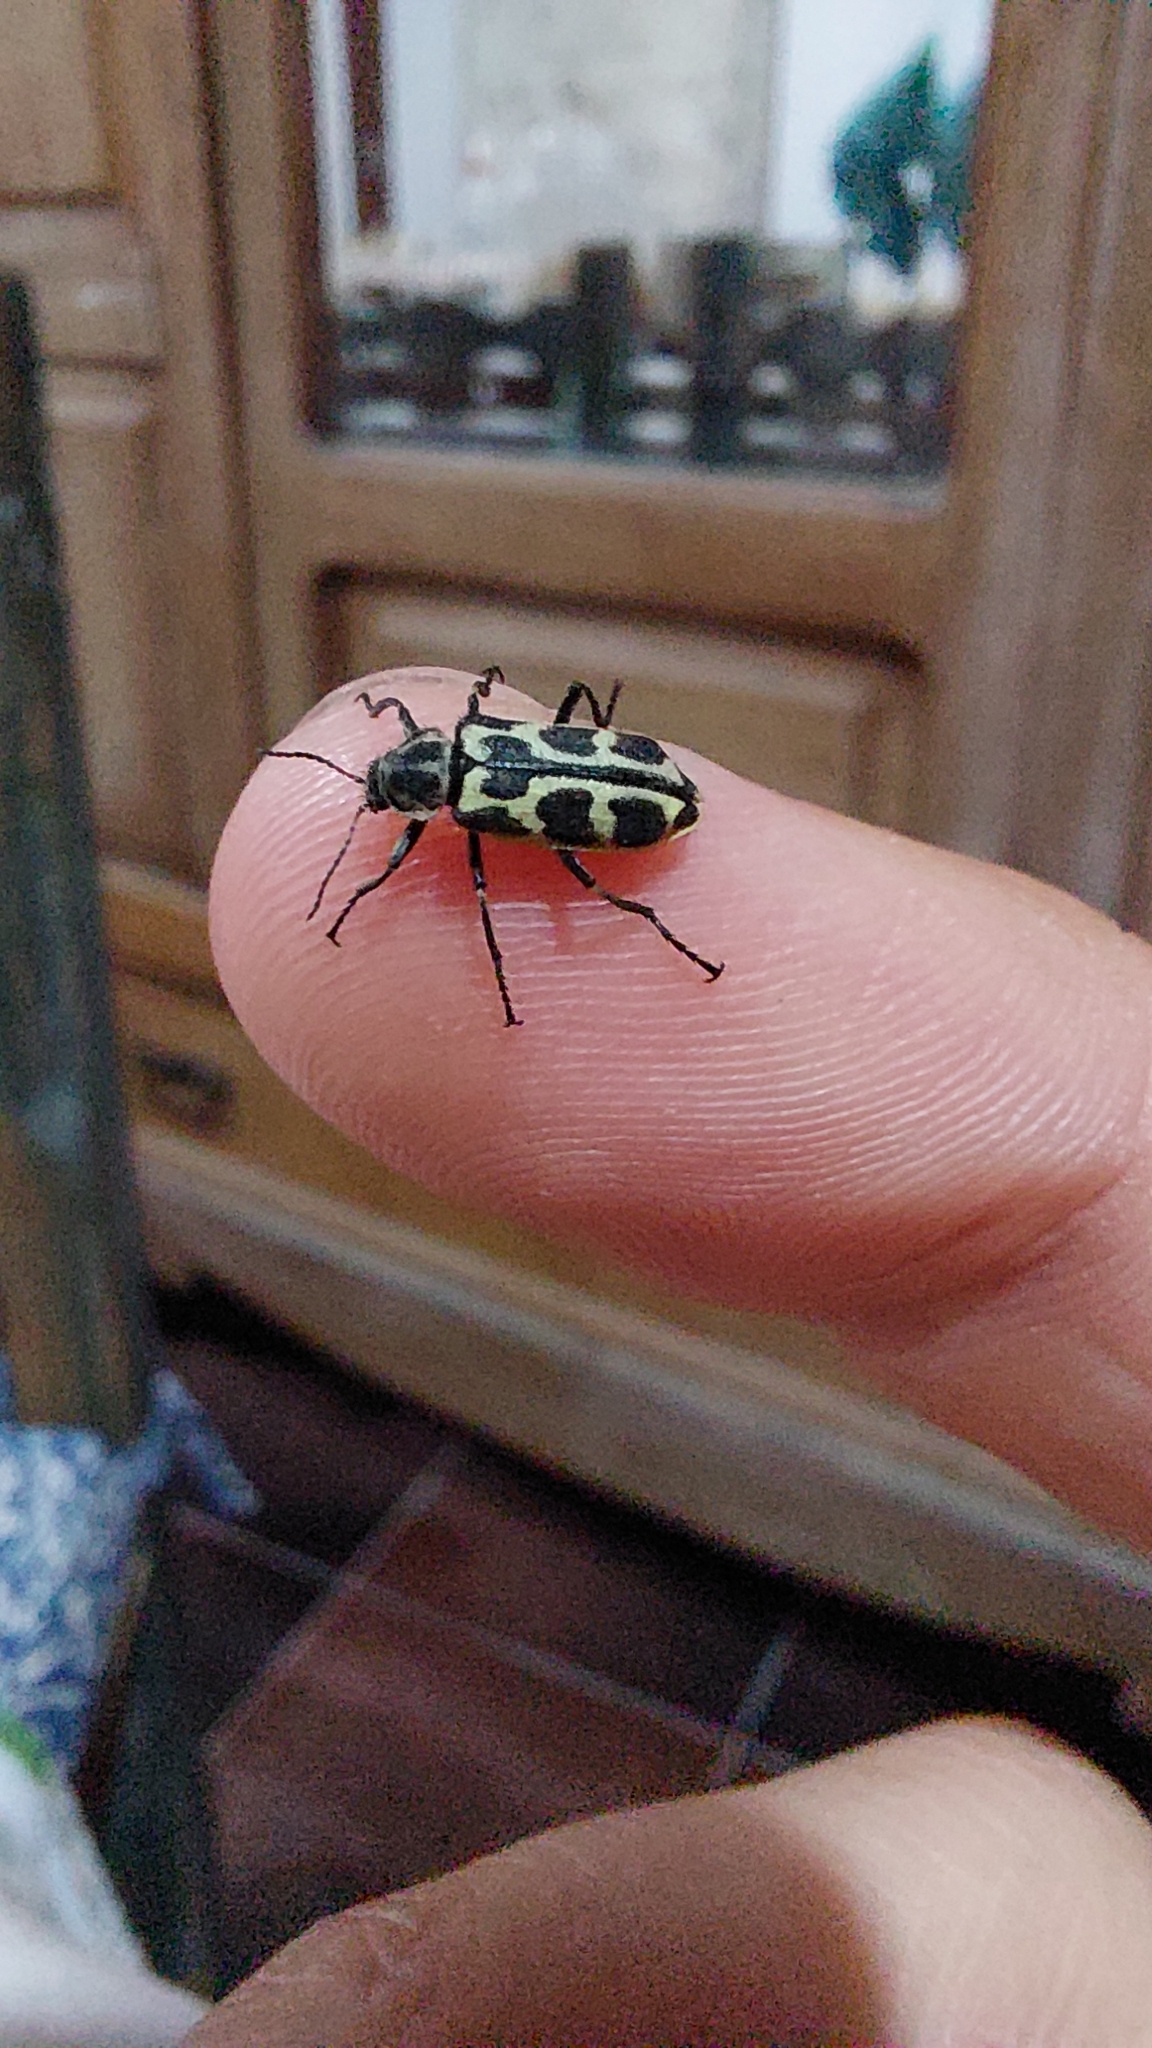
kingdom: Animalia
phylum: Arthropoda
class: Insecta
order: Coleoptera
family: Melyridae
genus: Astylus
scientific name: Astylus atromaculatus
